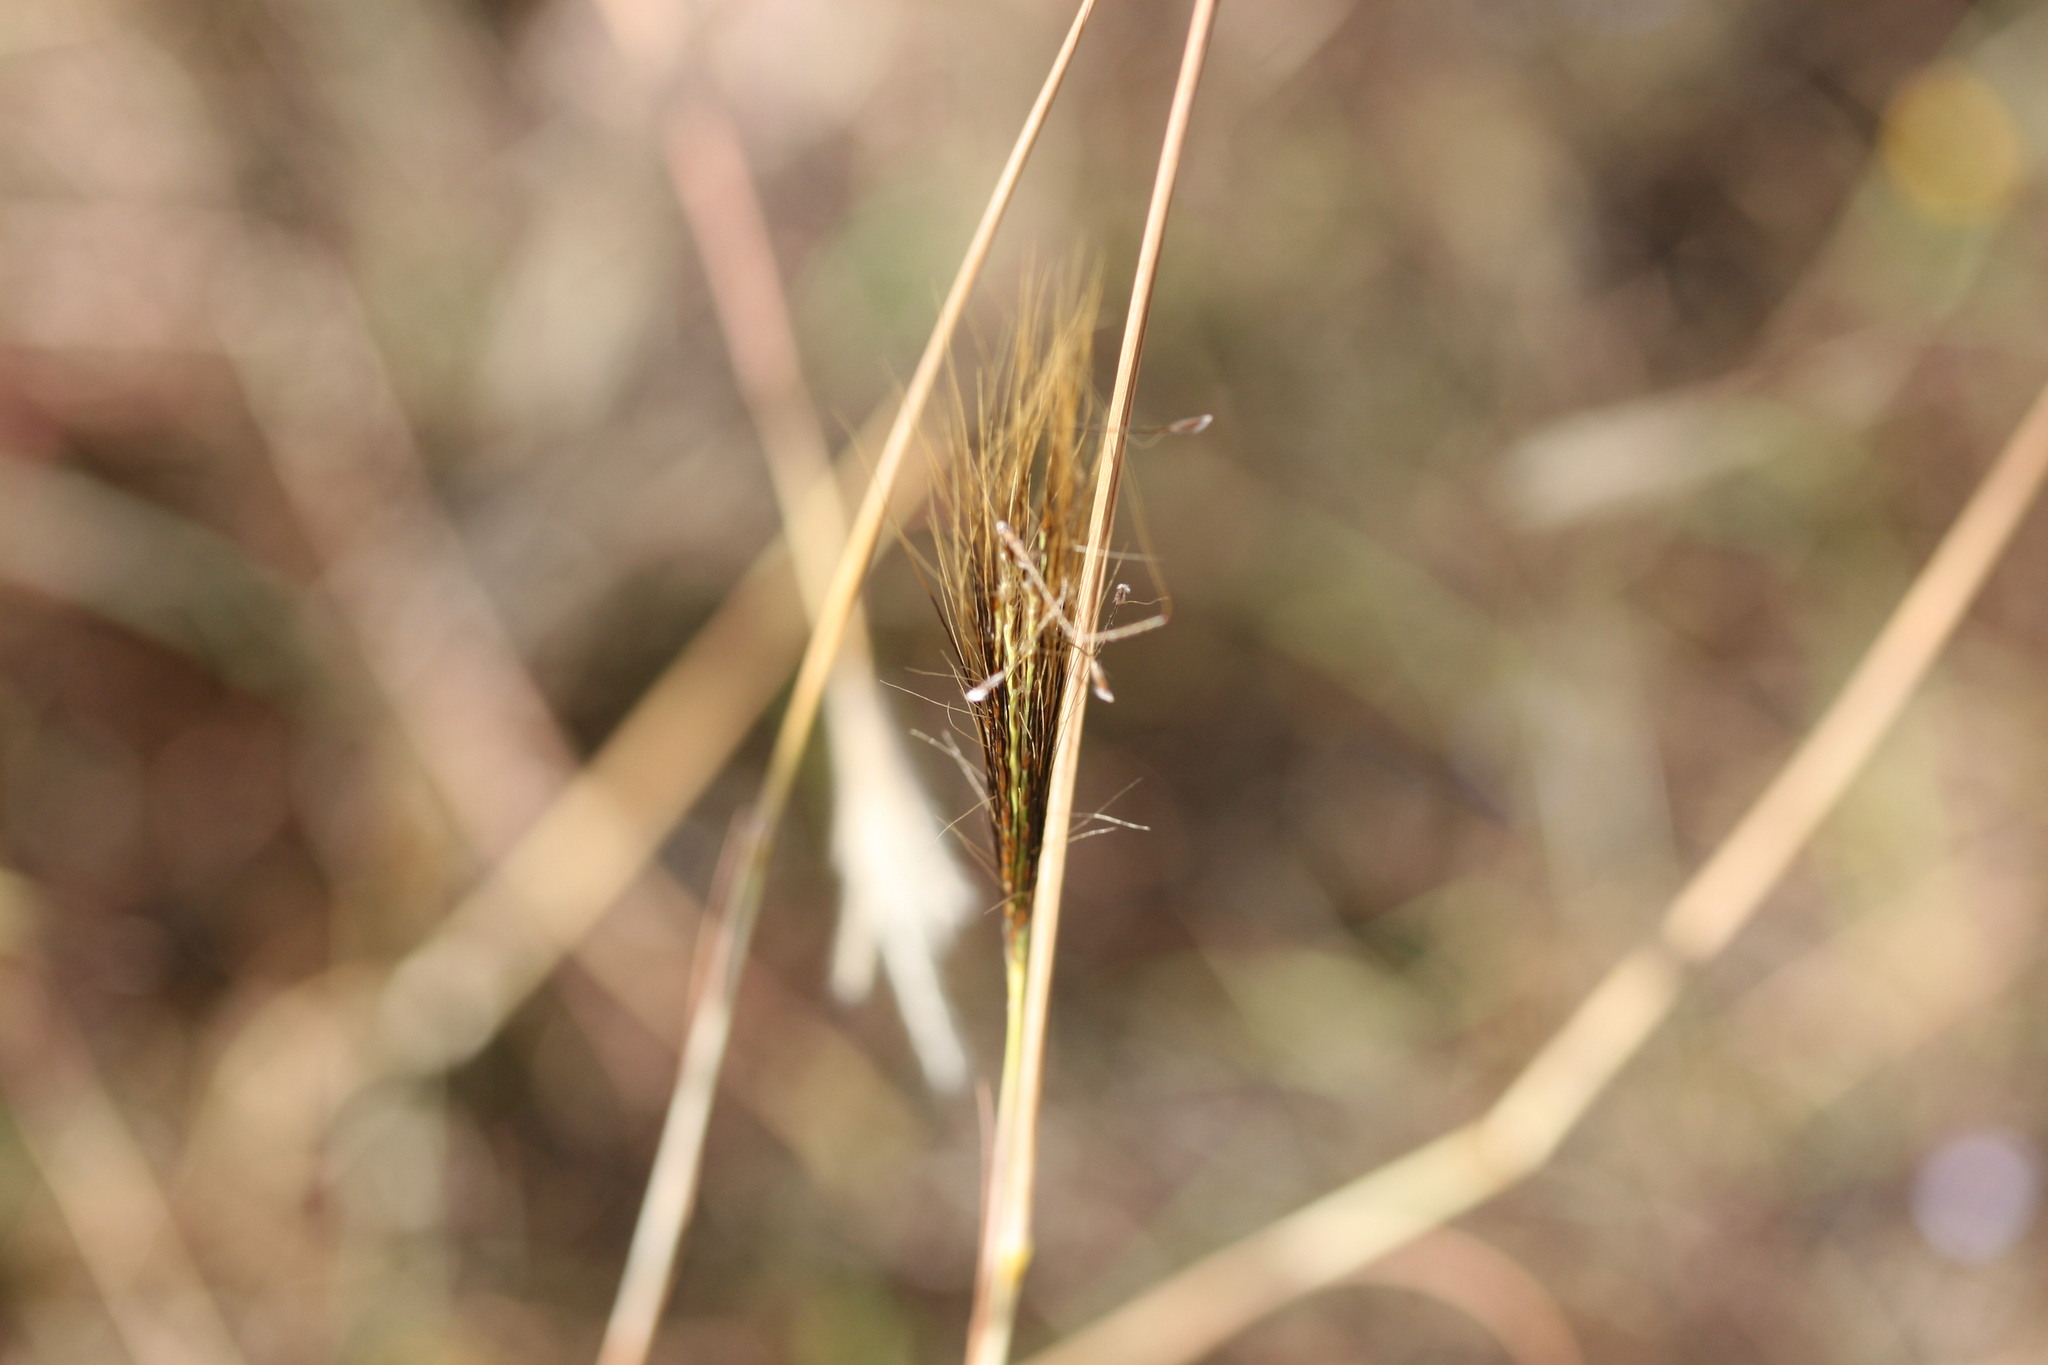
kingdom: Plantae
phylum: Tracheophyta
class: Liliopsida
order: Poales
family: Poaceae
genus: Pseudopogonatherum
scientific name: Pseudopogonatherum contortum
